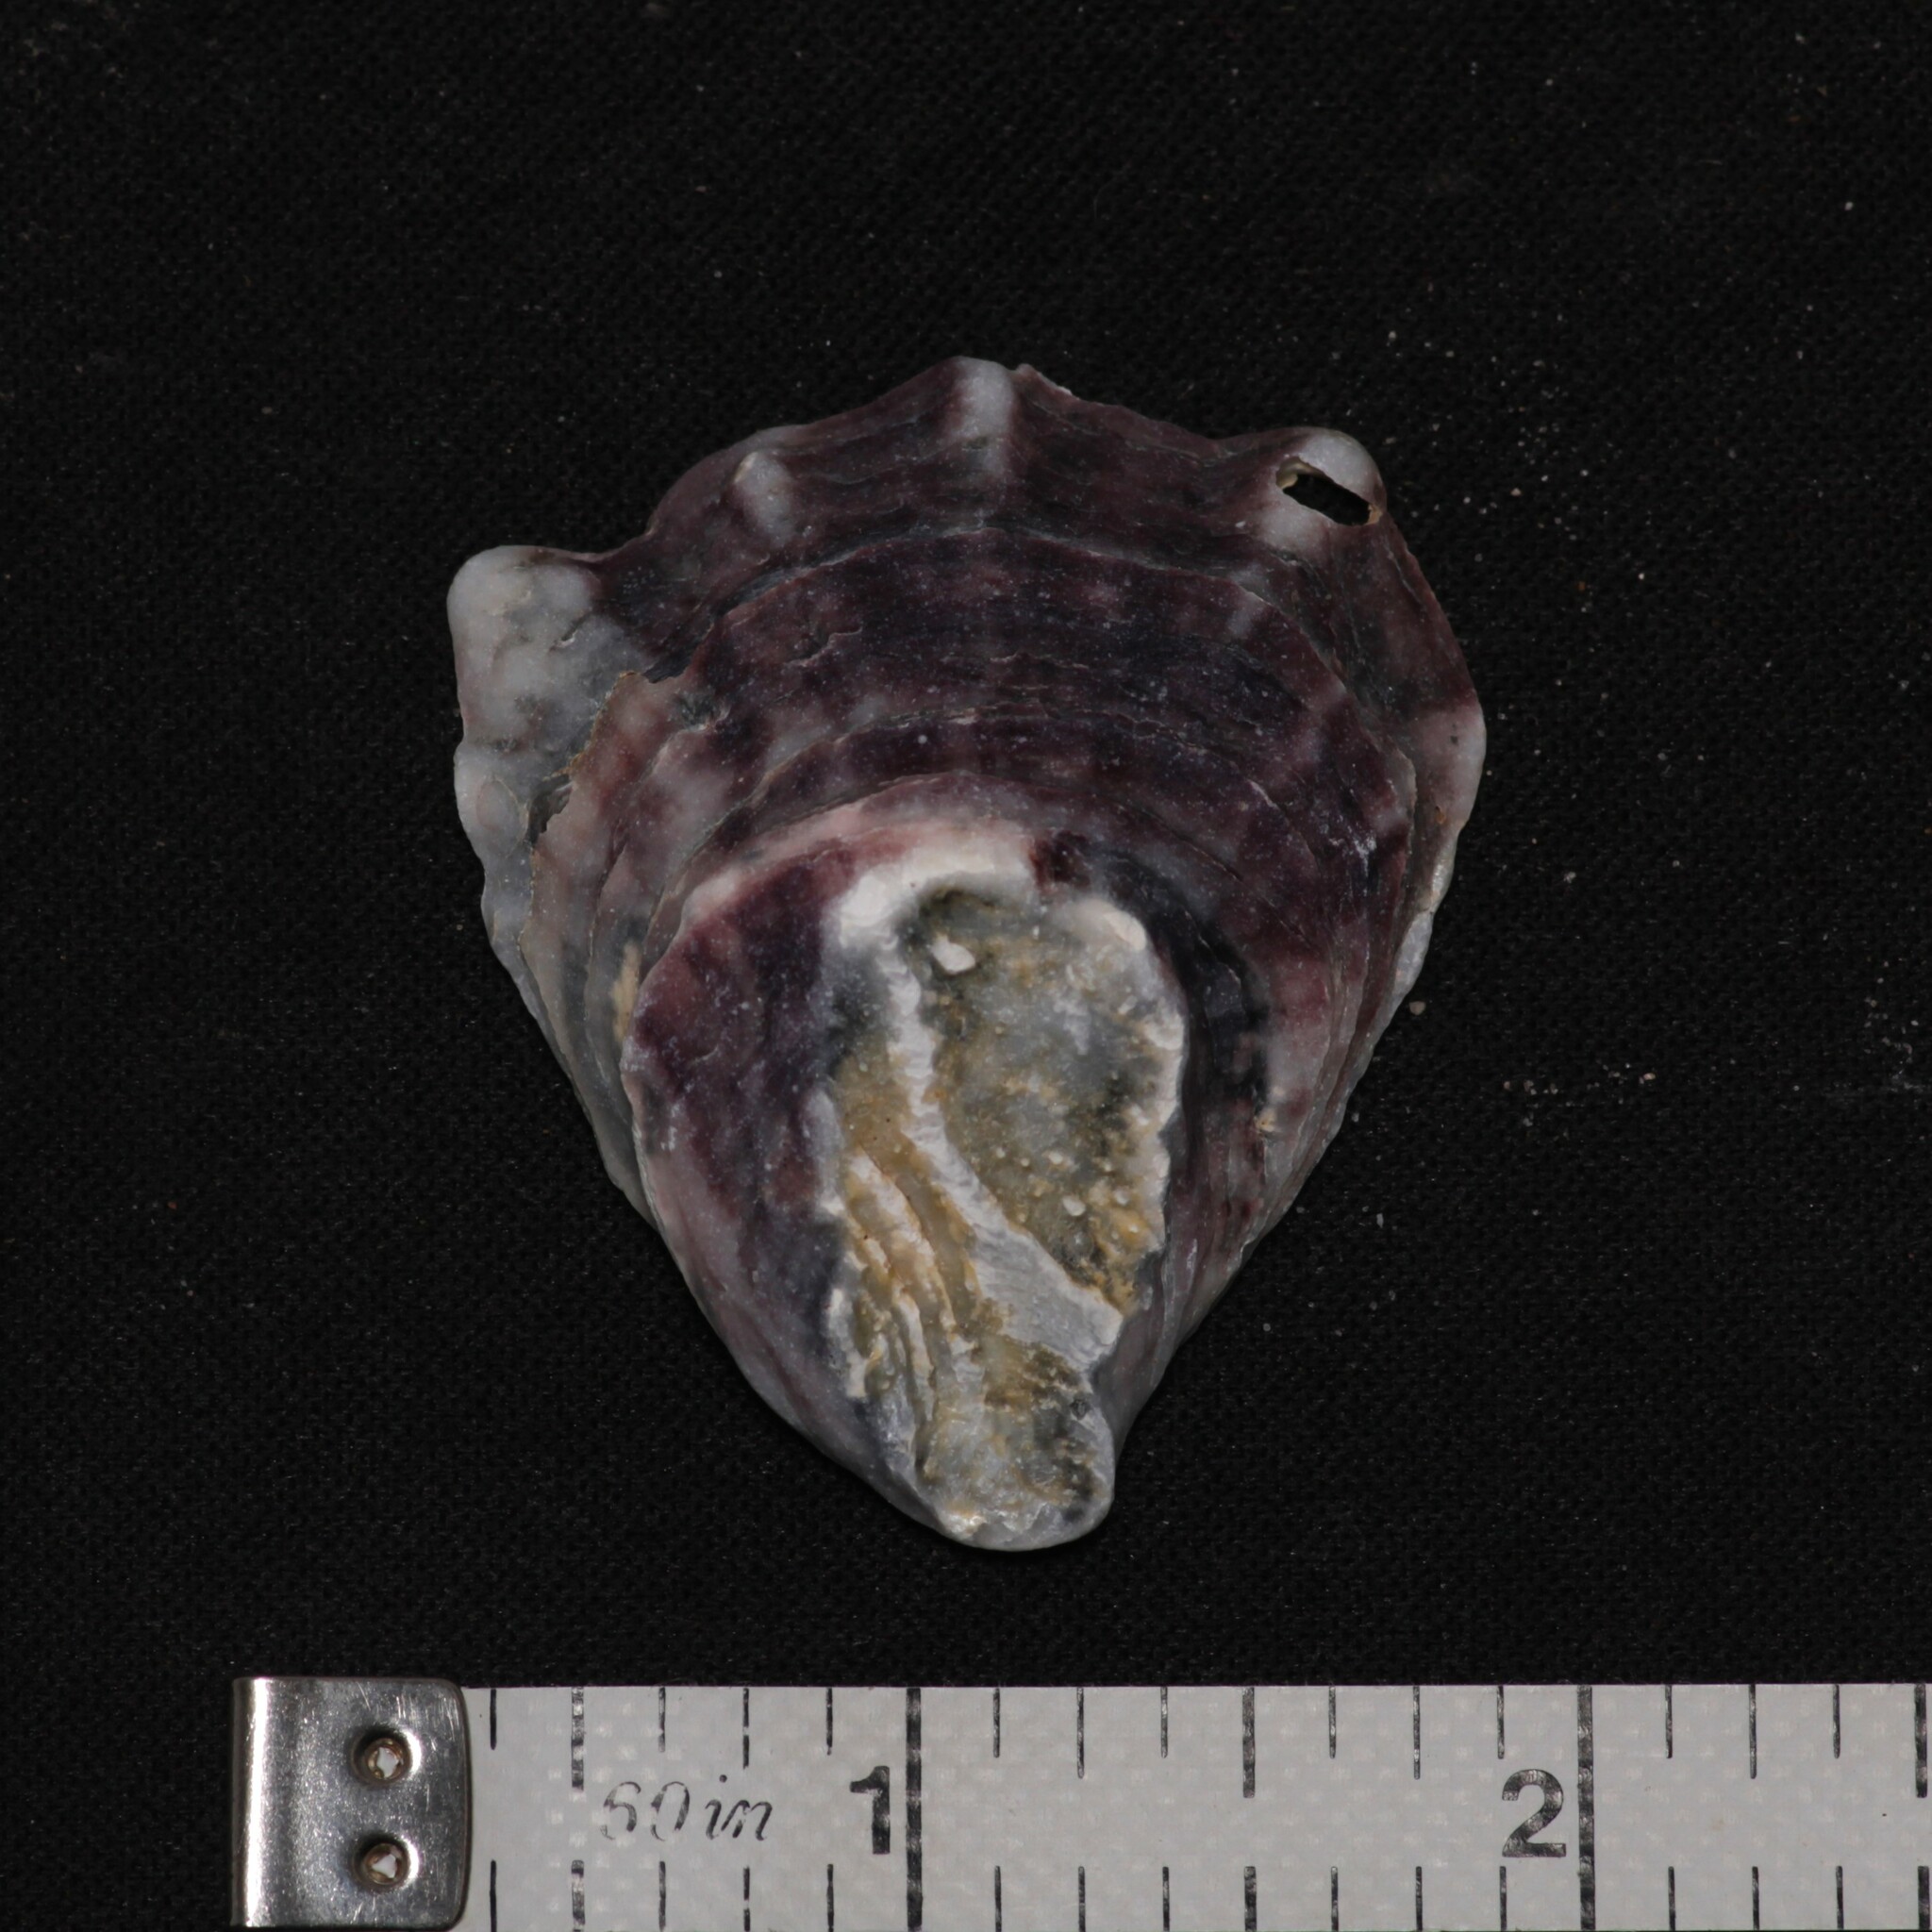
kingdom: Animalia
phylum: Mollusca
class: Bivalvia
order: Ostreida
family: Ostreidae
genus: Crassostrea
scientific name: Crassostrea virginica
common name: American oyster
